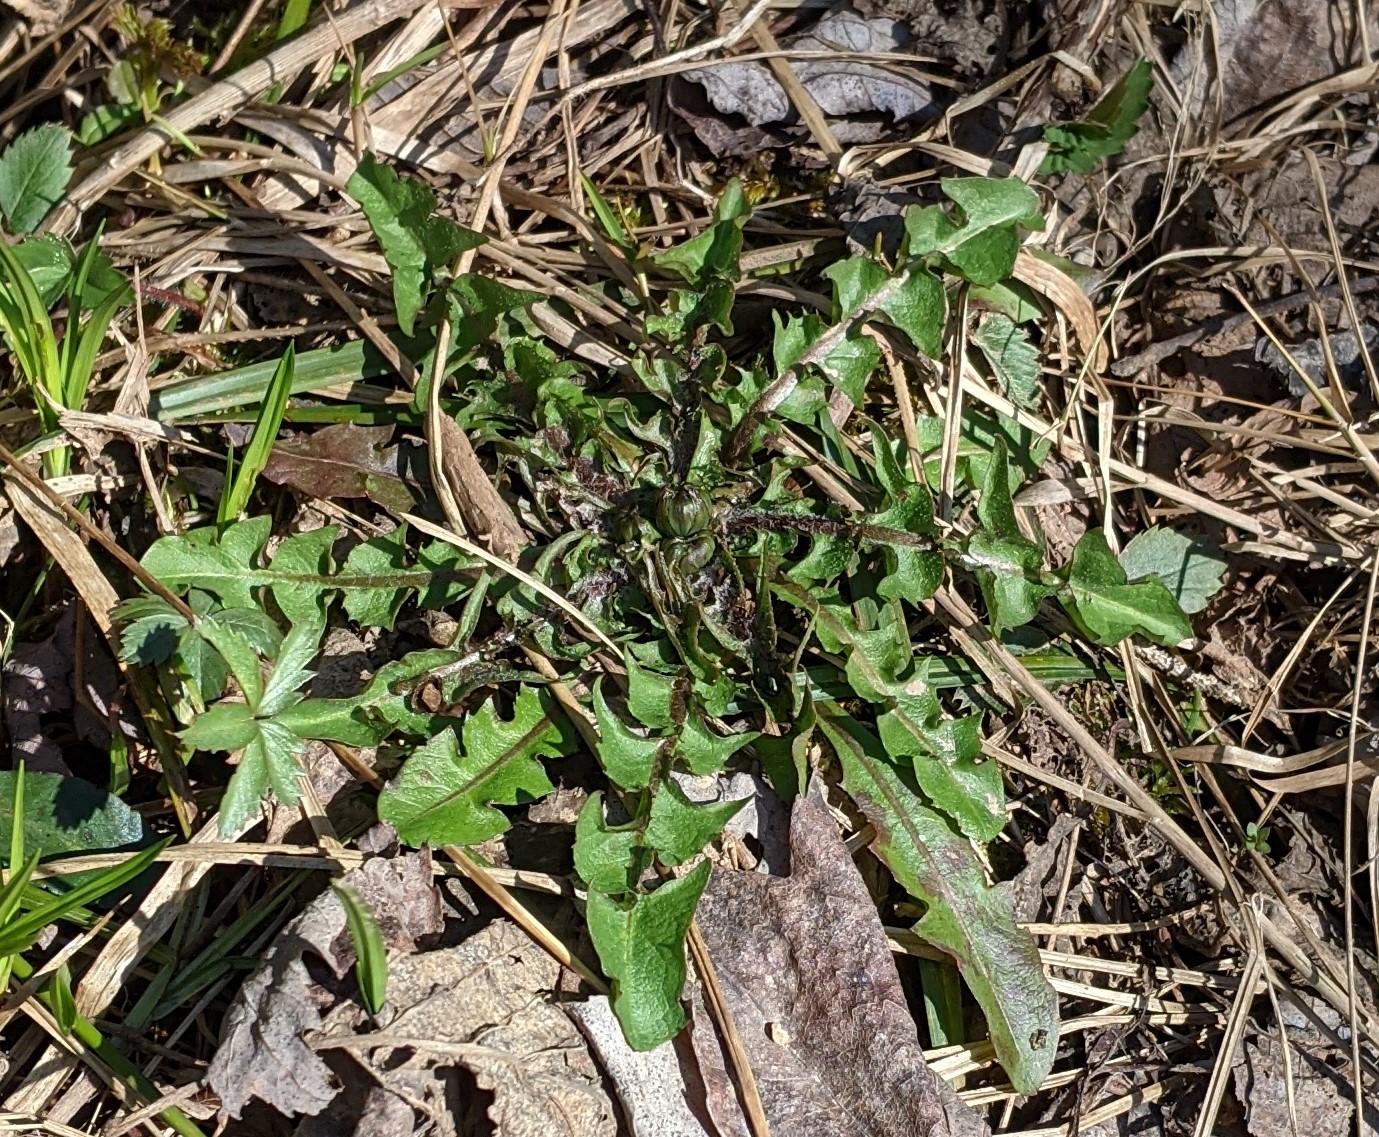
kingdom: Plantae
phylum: Tracheophyta
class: Magnoliopsida
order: Asterales
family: Asteraceae
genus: Taraxacum
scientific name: Taraxacum officinale
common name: Common dandelion
